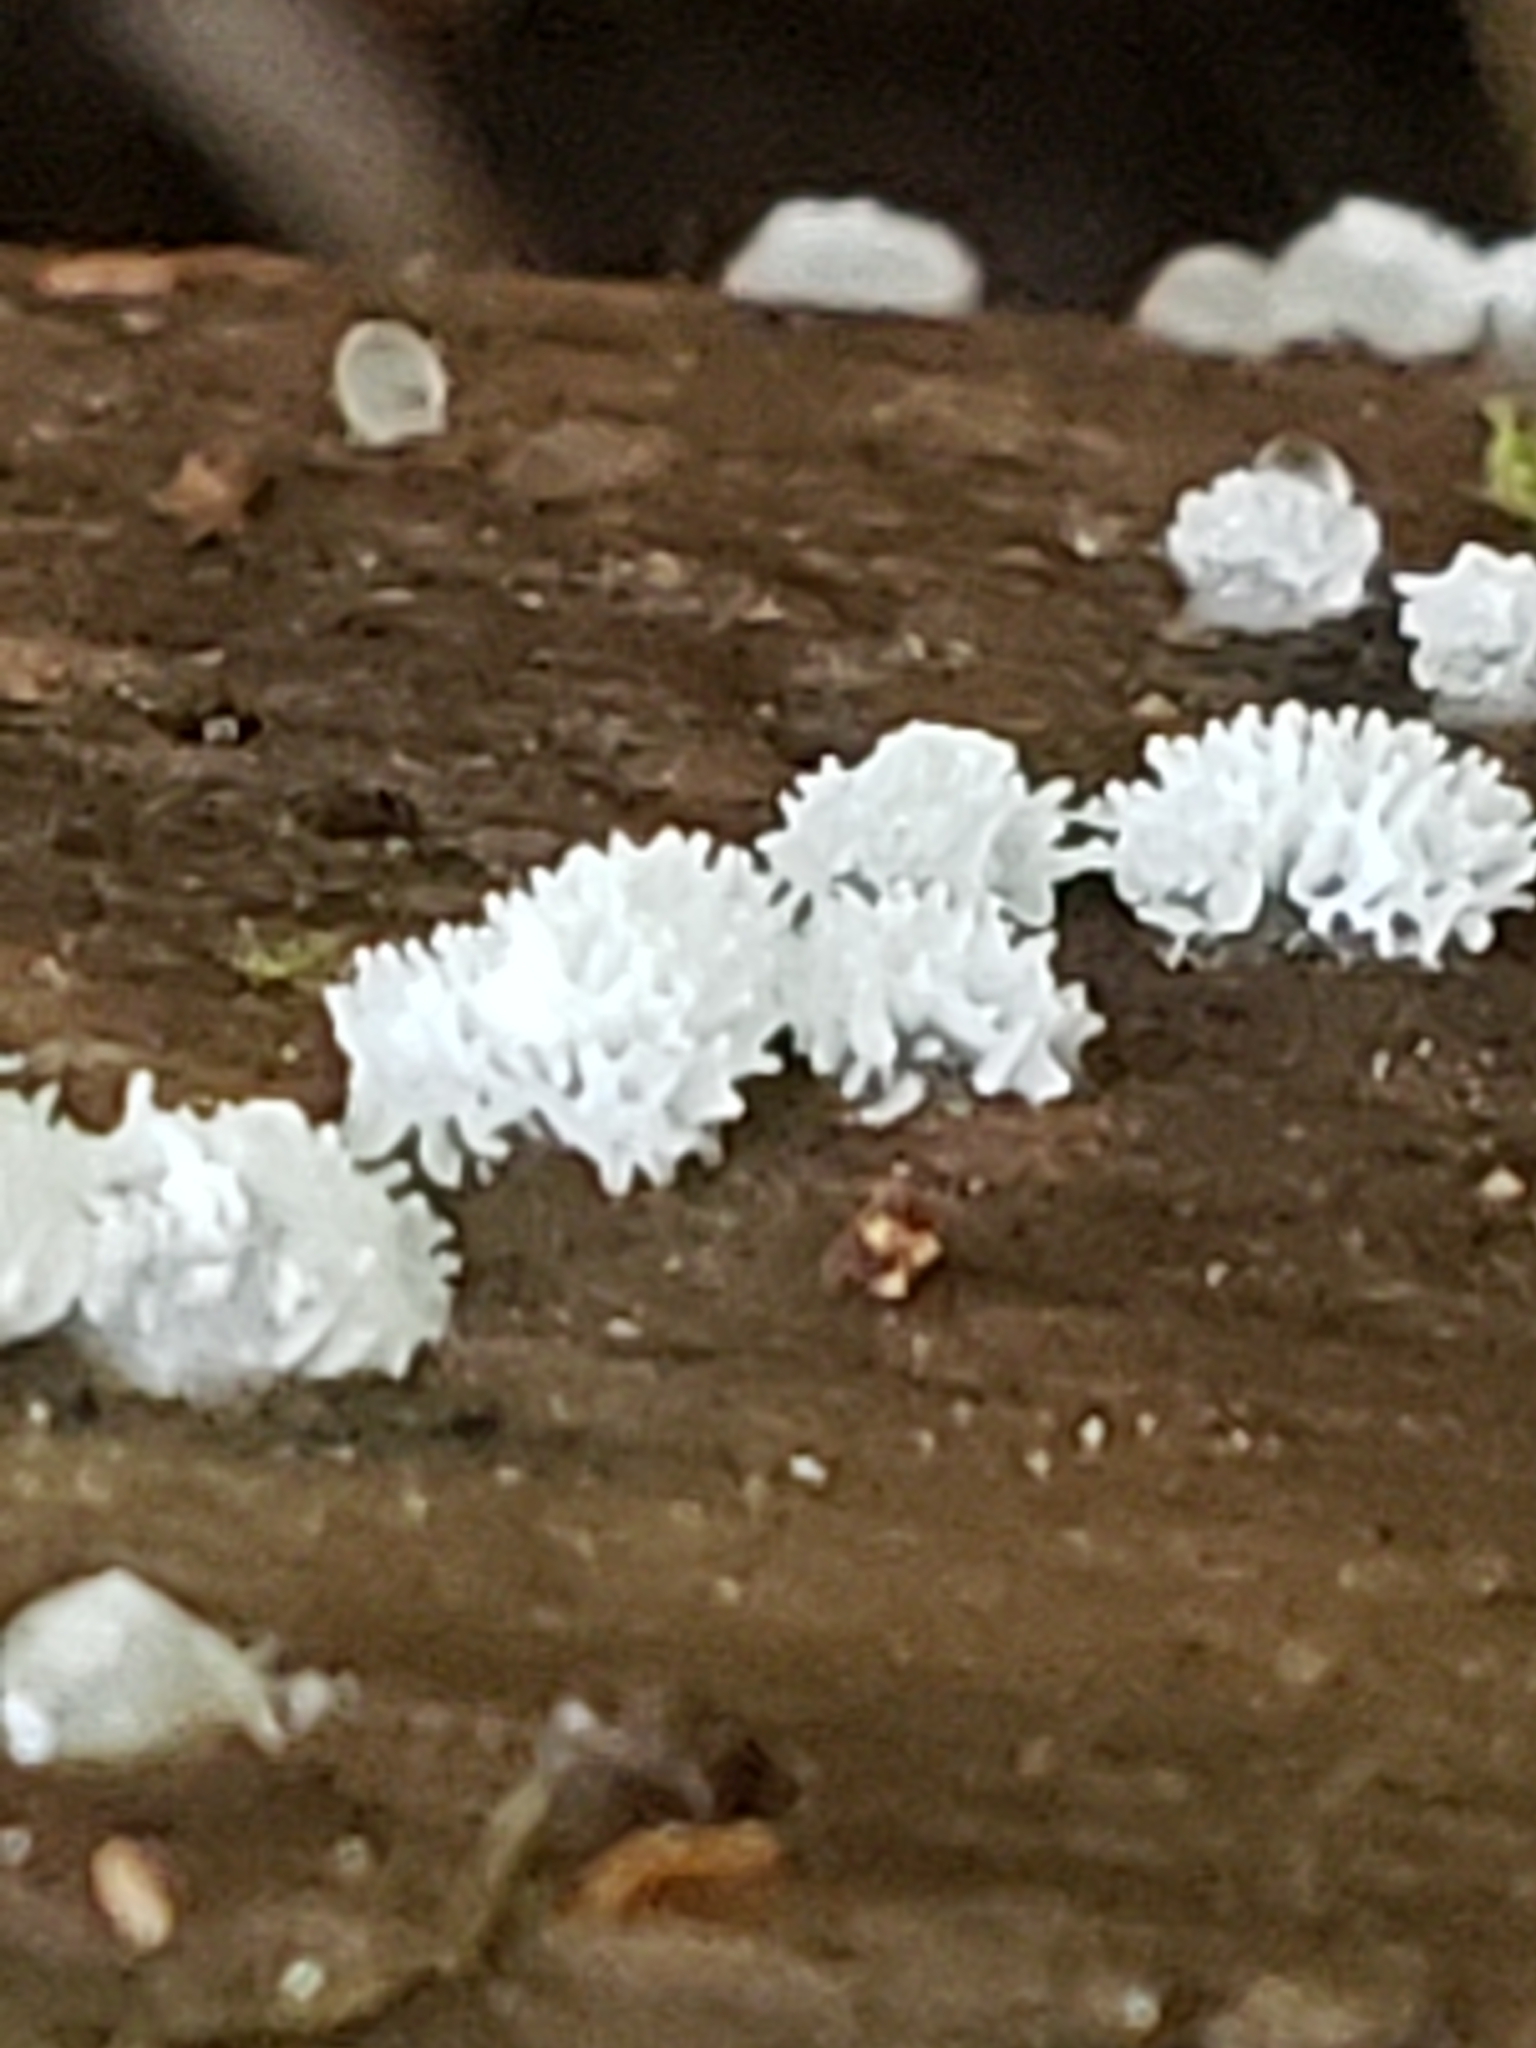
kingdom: Protozoa
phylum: Mycetozoa
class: Protosteliomycetes
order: Ceratiomyxales
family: Ceratiomyxaceae
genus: Ceratiomyxa
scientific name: Ceratiomyxa fruticulosa
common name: Honeycomb coral slime mold
